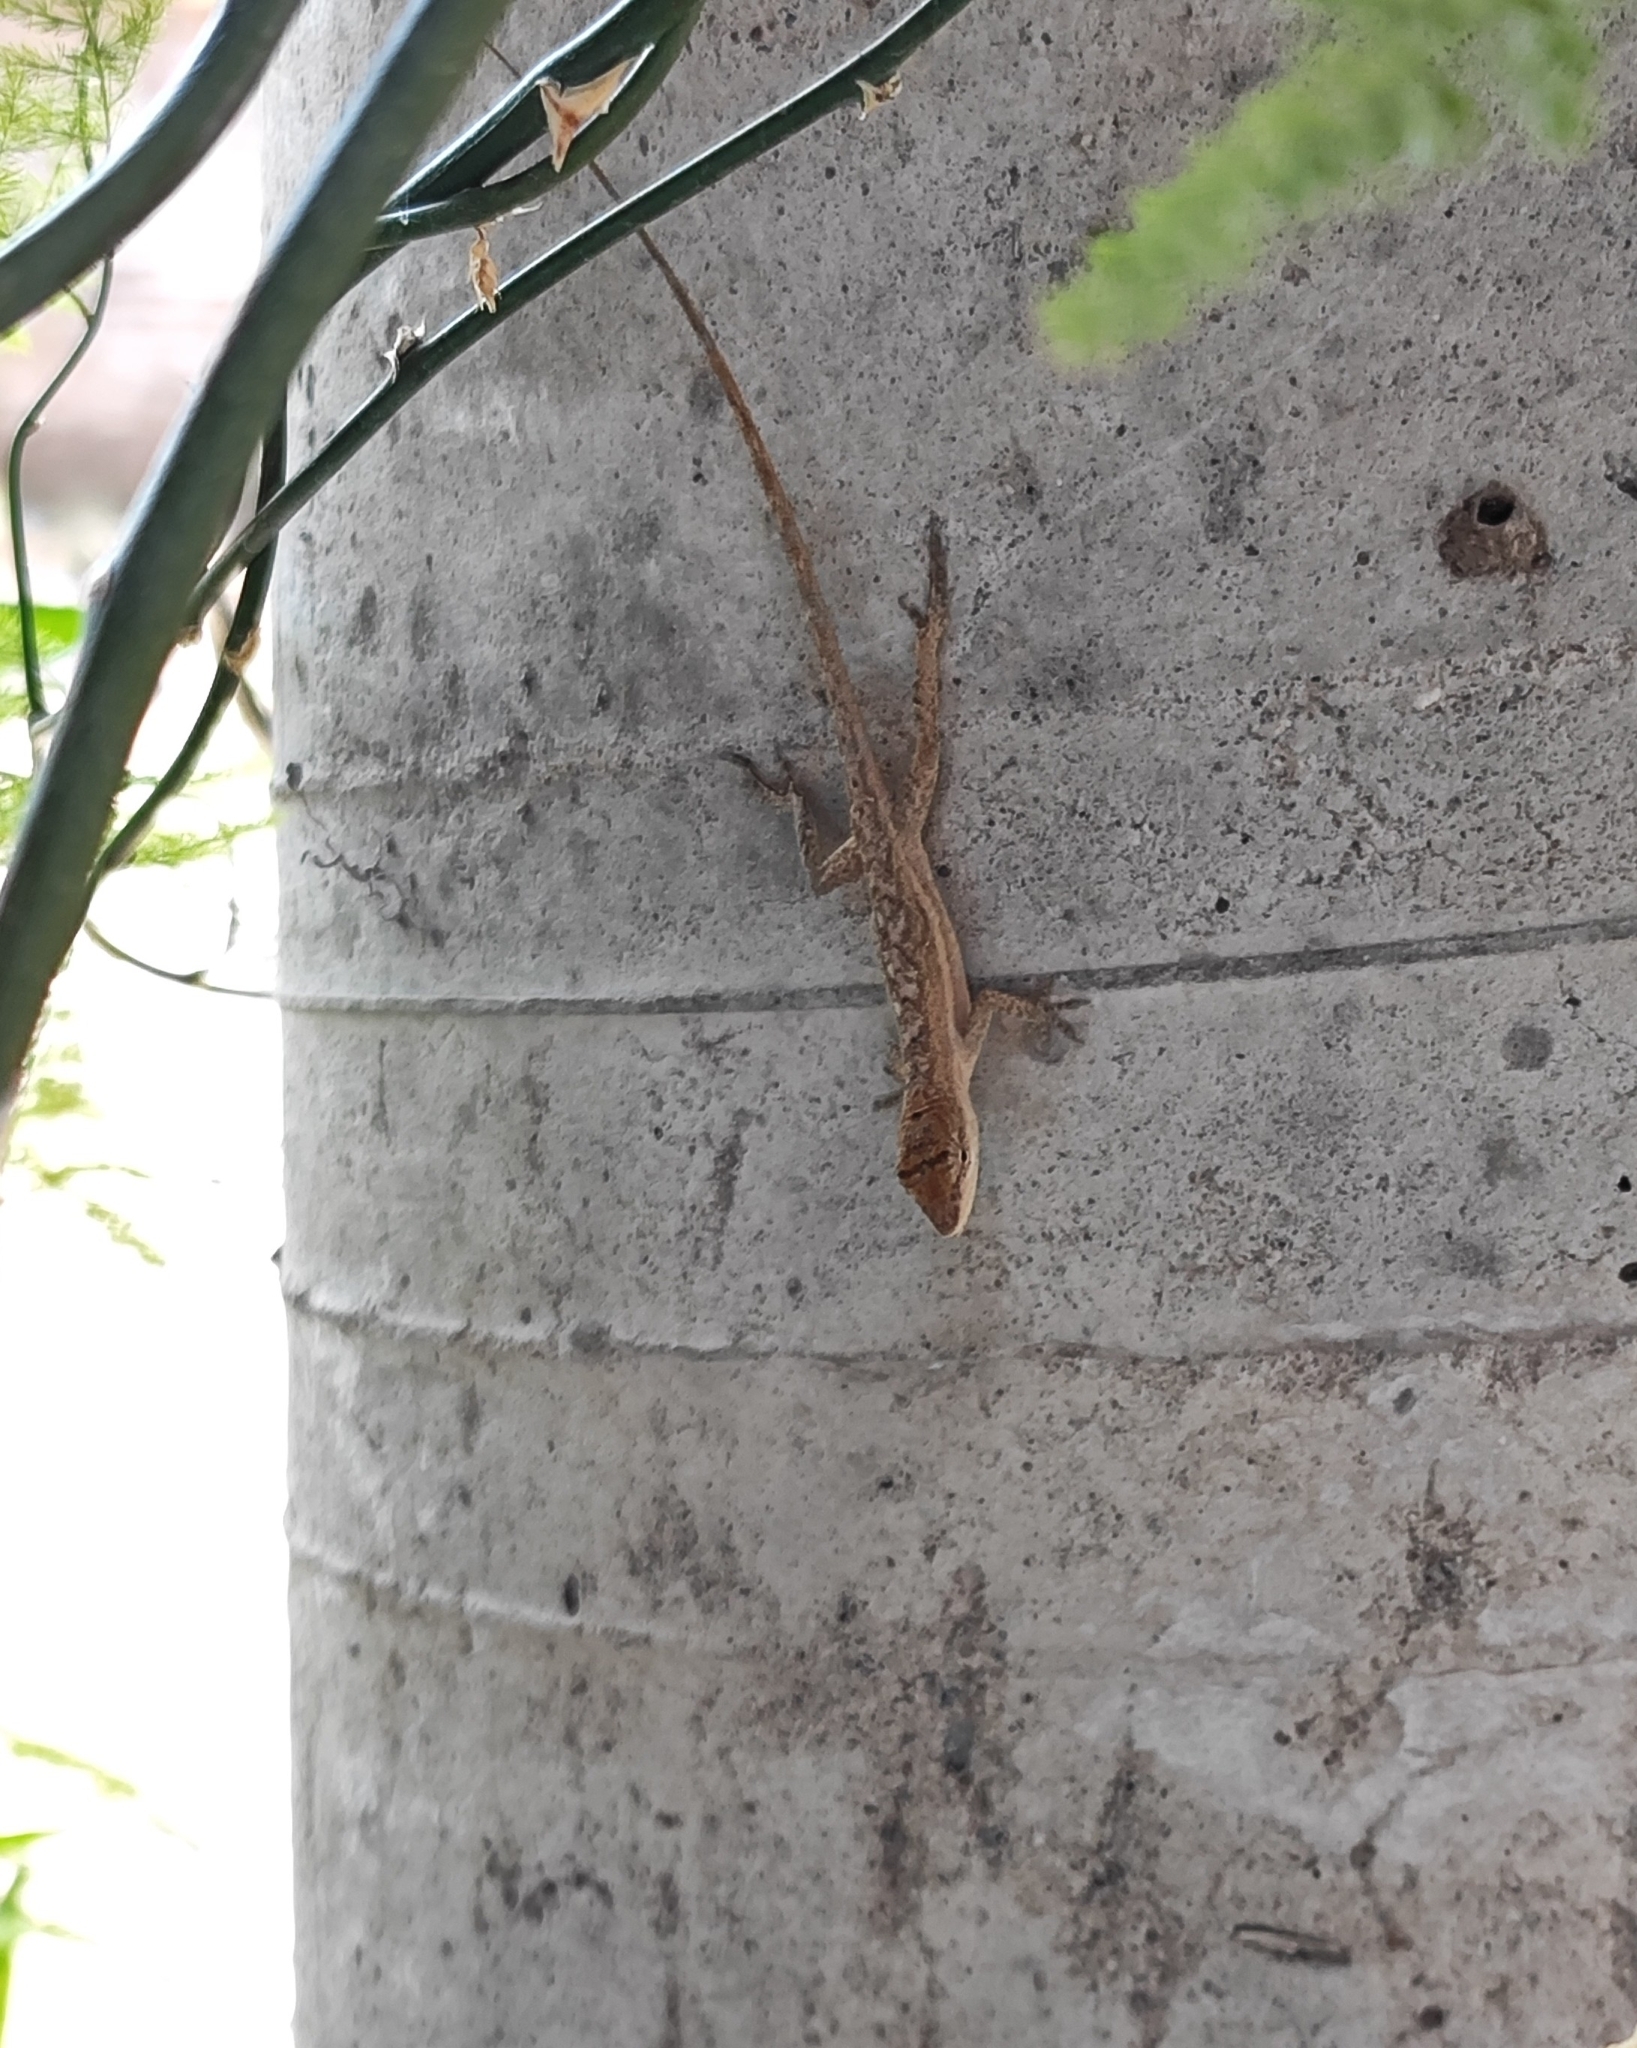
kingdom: Animalia
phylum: Chordata
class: Squamata
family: Dactyloidae
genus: Anolis
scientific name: Anolis nebulosus
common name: Clouded anole
